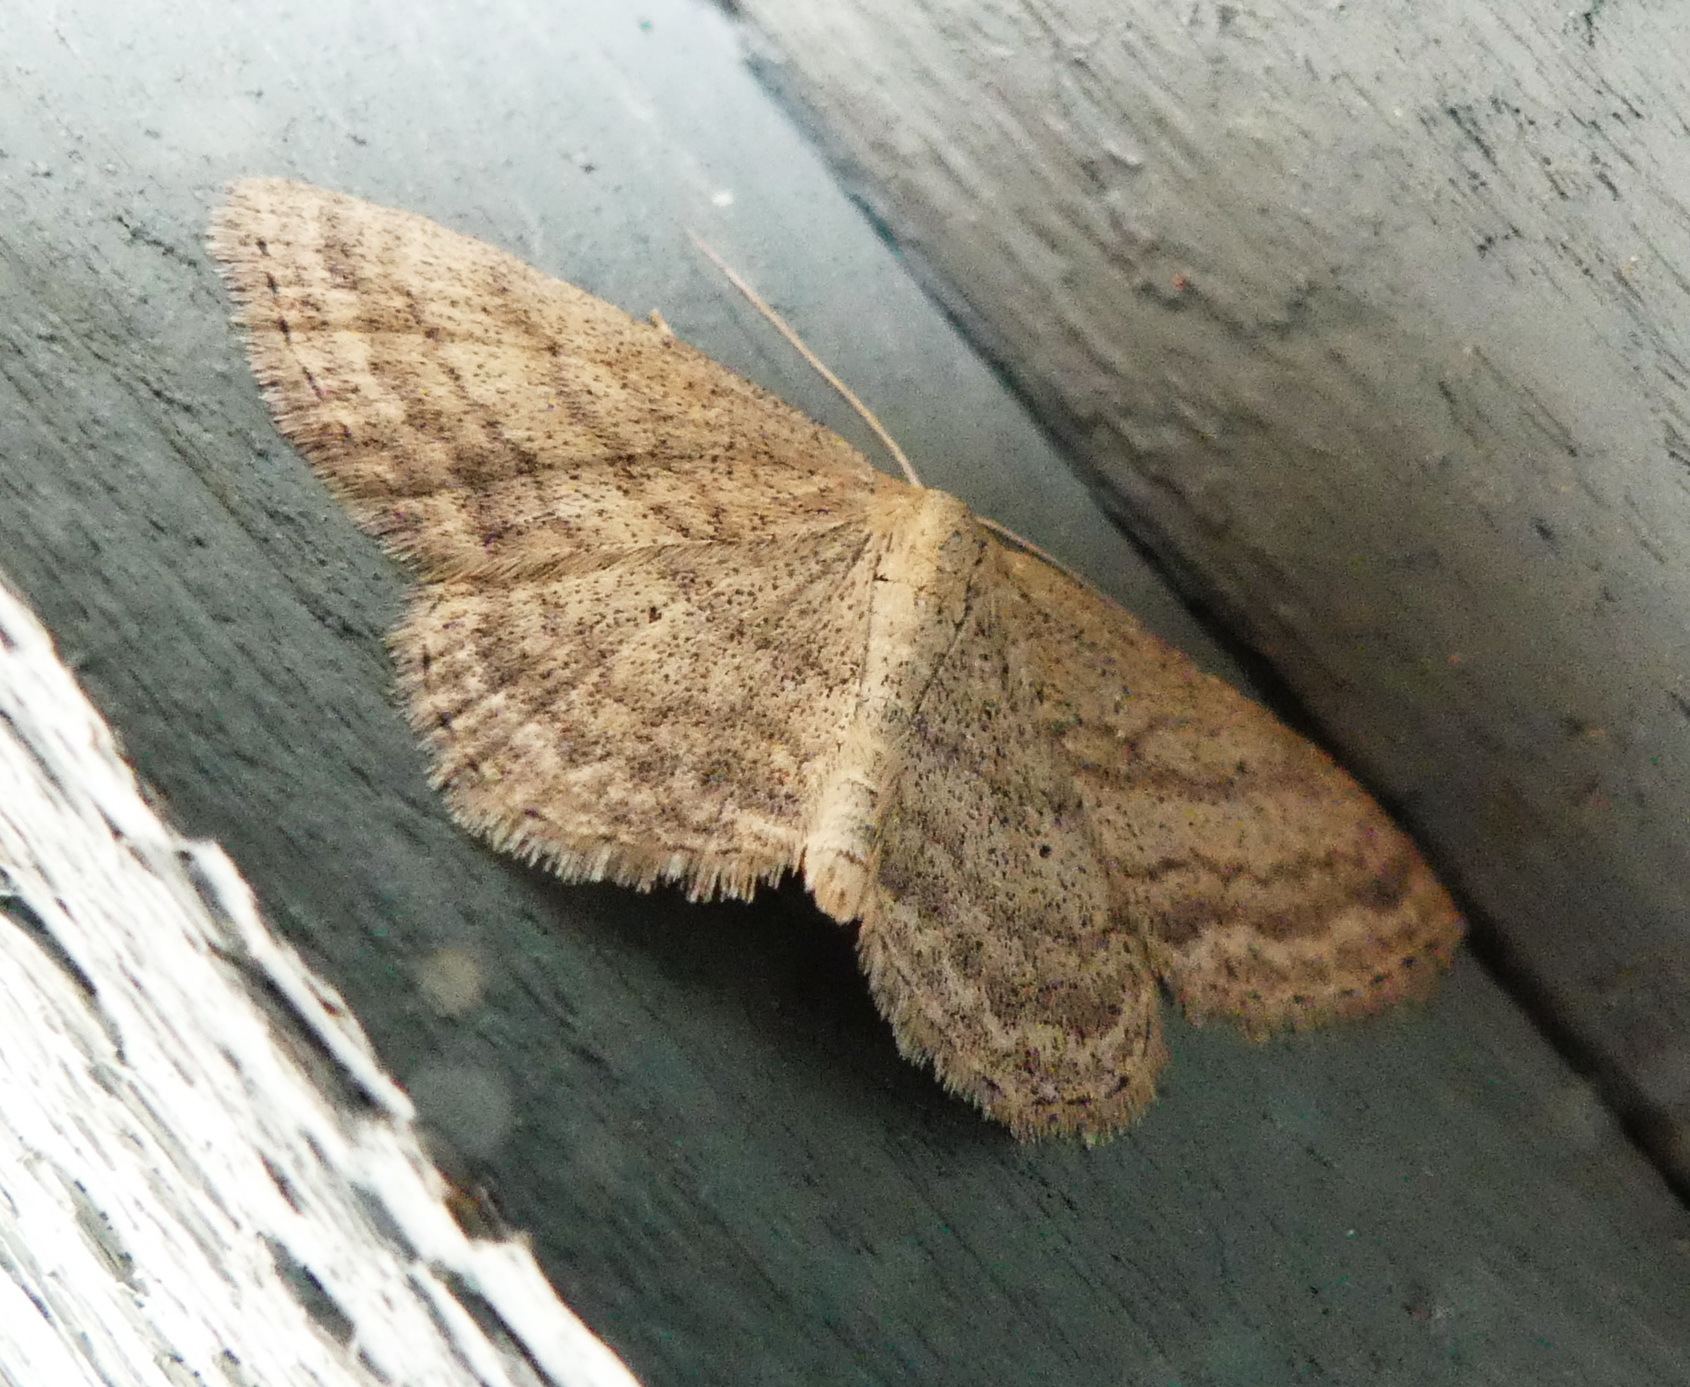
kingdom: Animalia
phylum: Arthropoda
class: Insecta
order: Lepidoptera
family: Geometridae
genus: Scopula
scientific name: Scopula inductata
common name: Soft-lined wave
